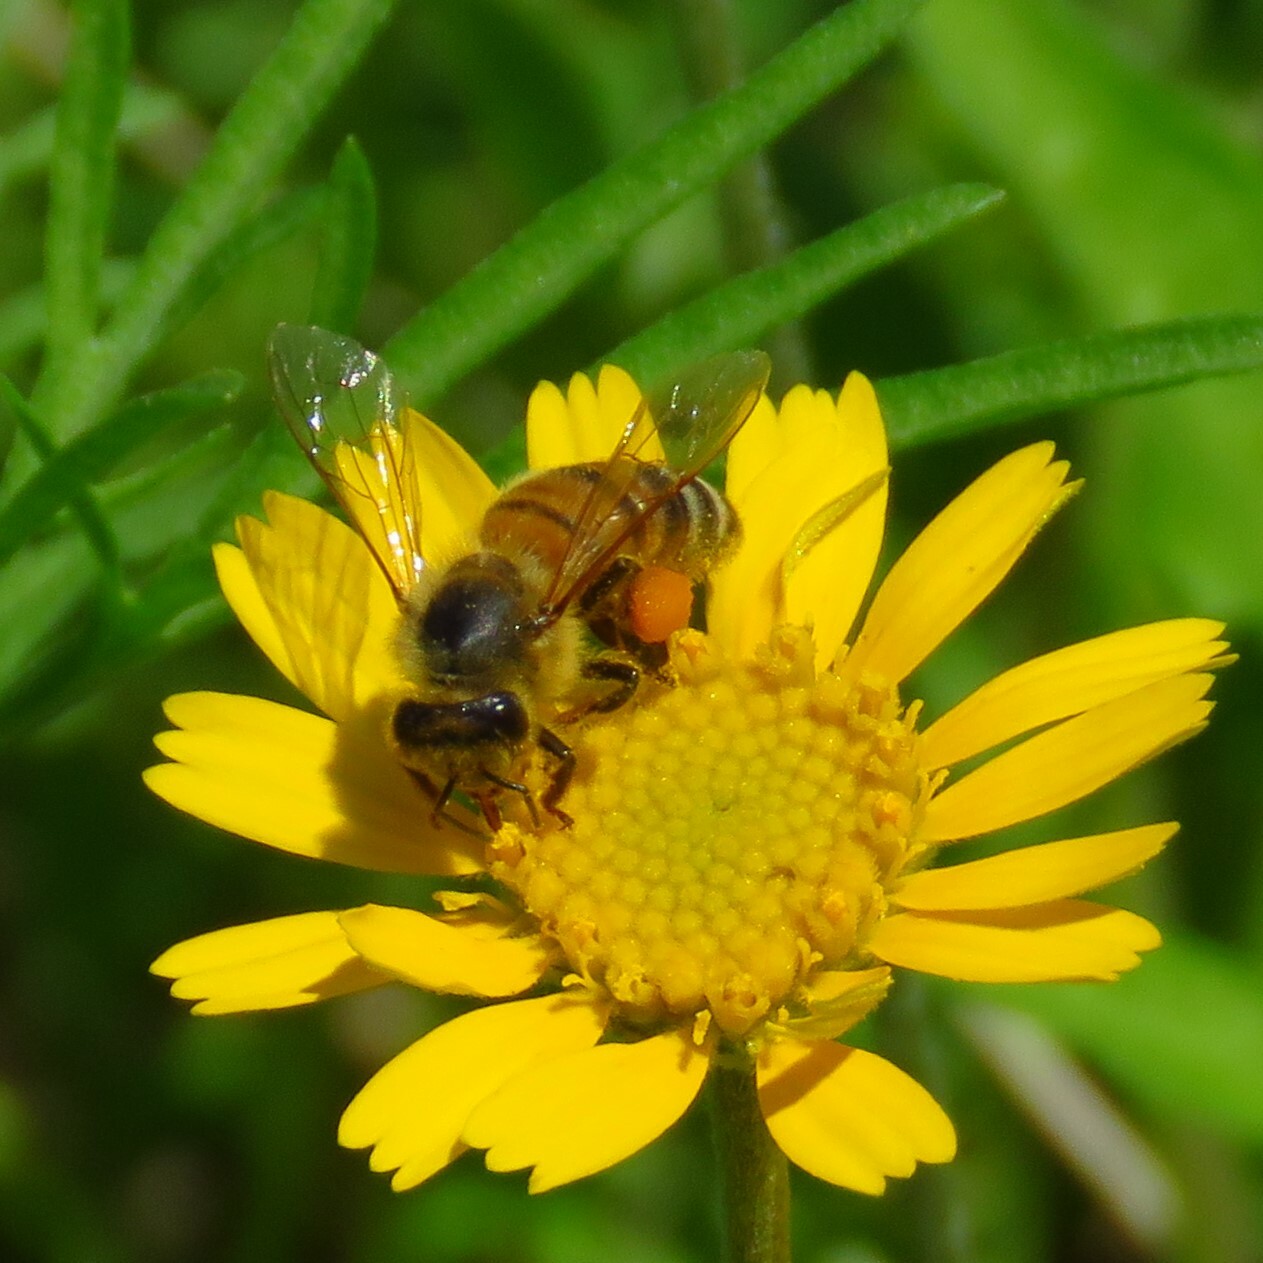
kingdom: Animalia
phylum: Arthropoda
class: Insecta
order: Hymenoptera
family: Apidae
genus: Apis
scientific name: Apis mellifera
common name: Honey bee
